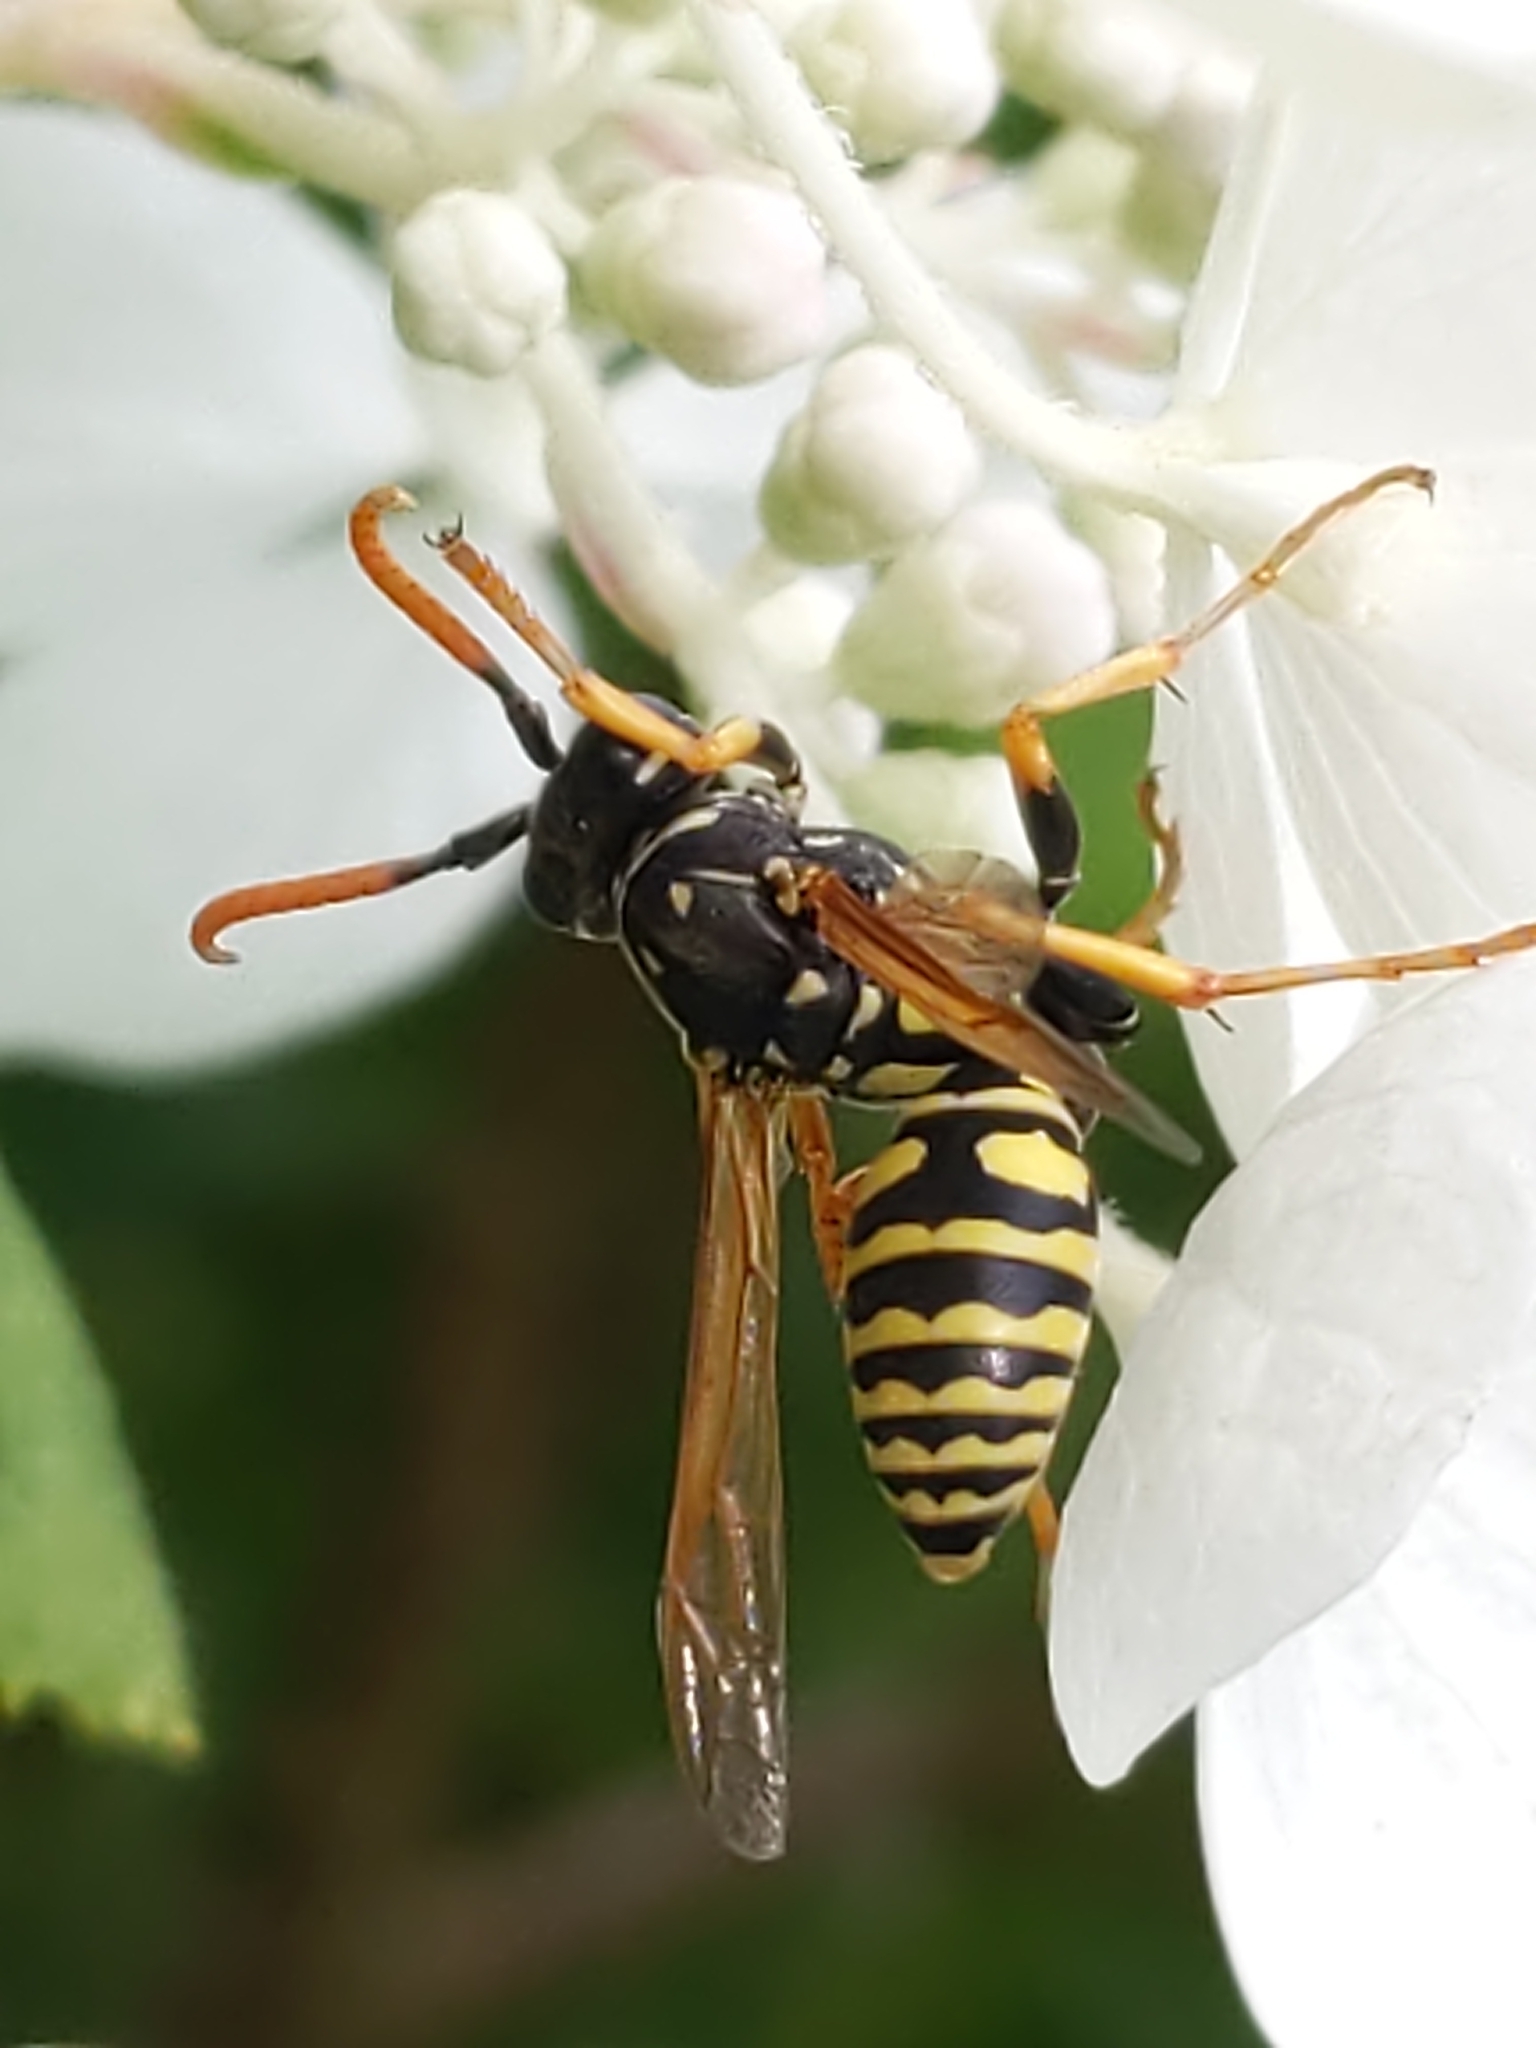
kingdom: Animalia
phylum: Arthropoda
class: Insecta
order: Hymenoptera
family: Eumenidae
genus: Polistes
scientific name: Polistes dominula
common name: Paper wasp
